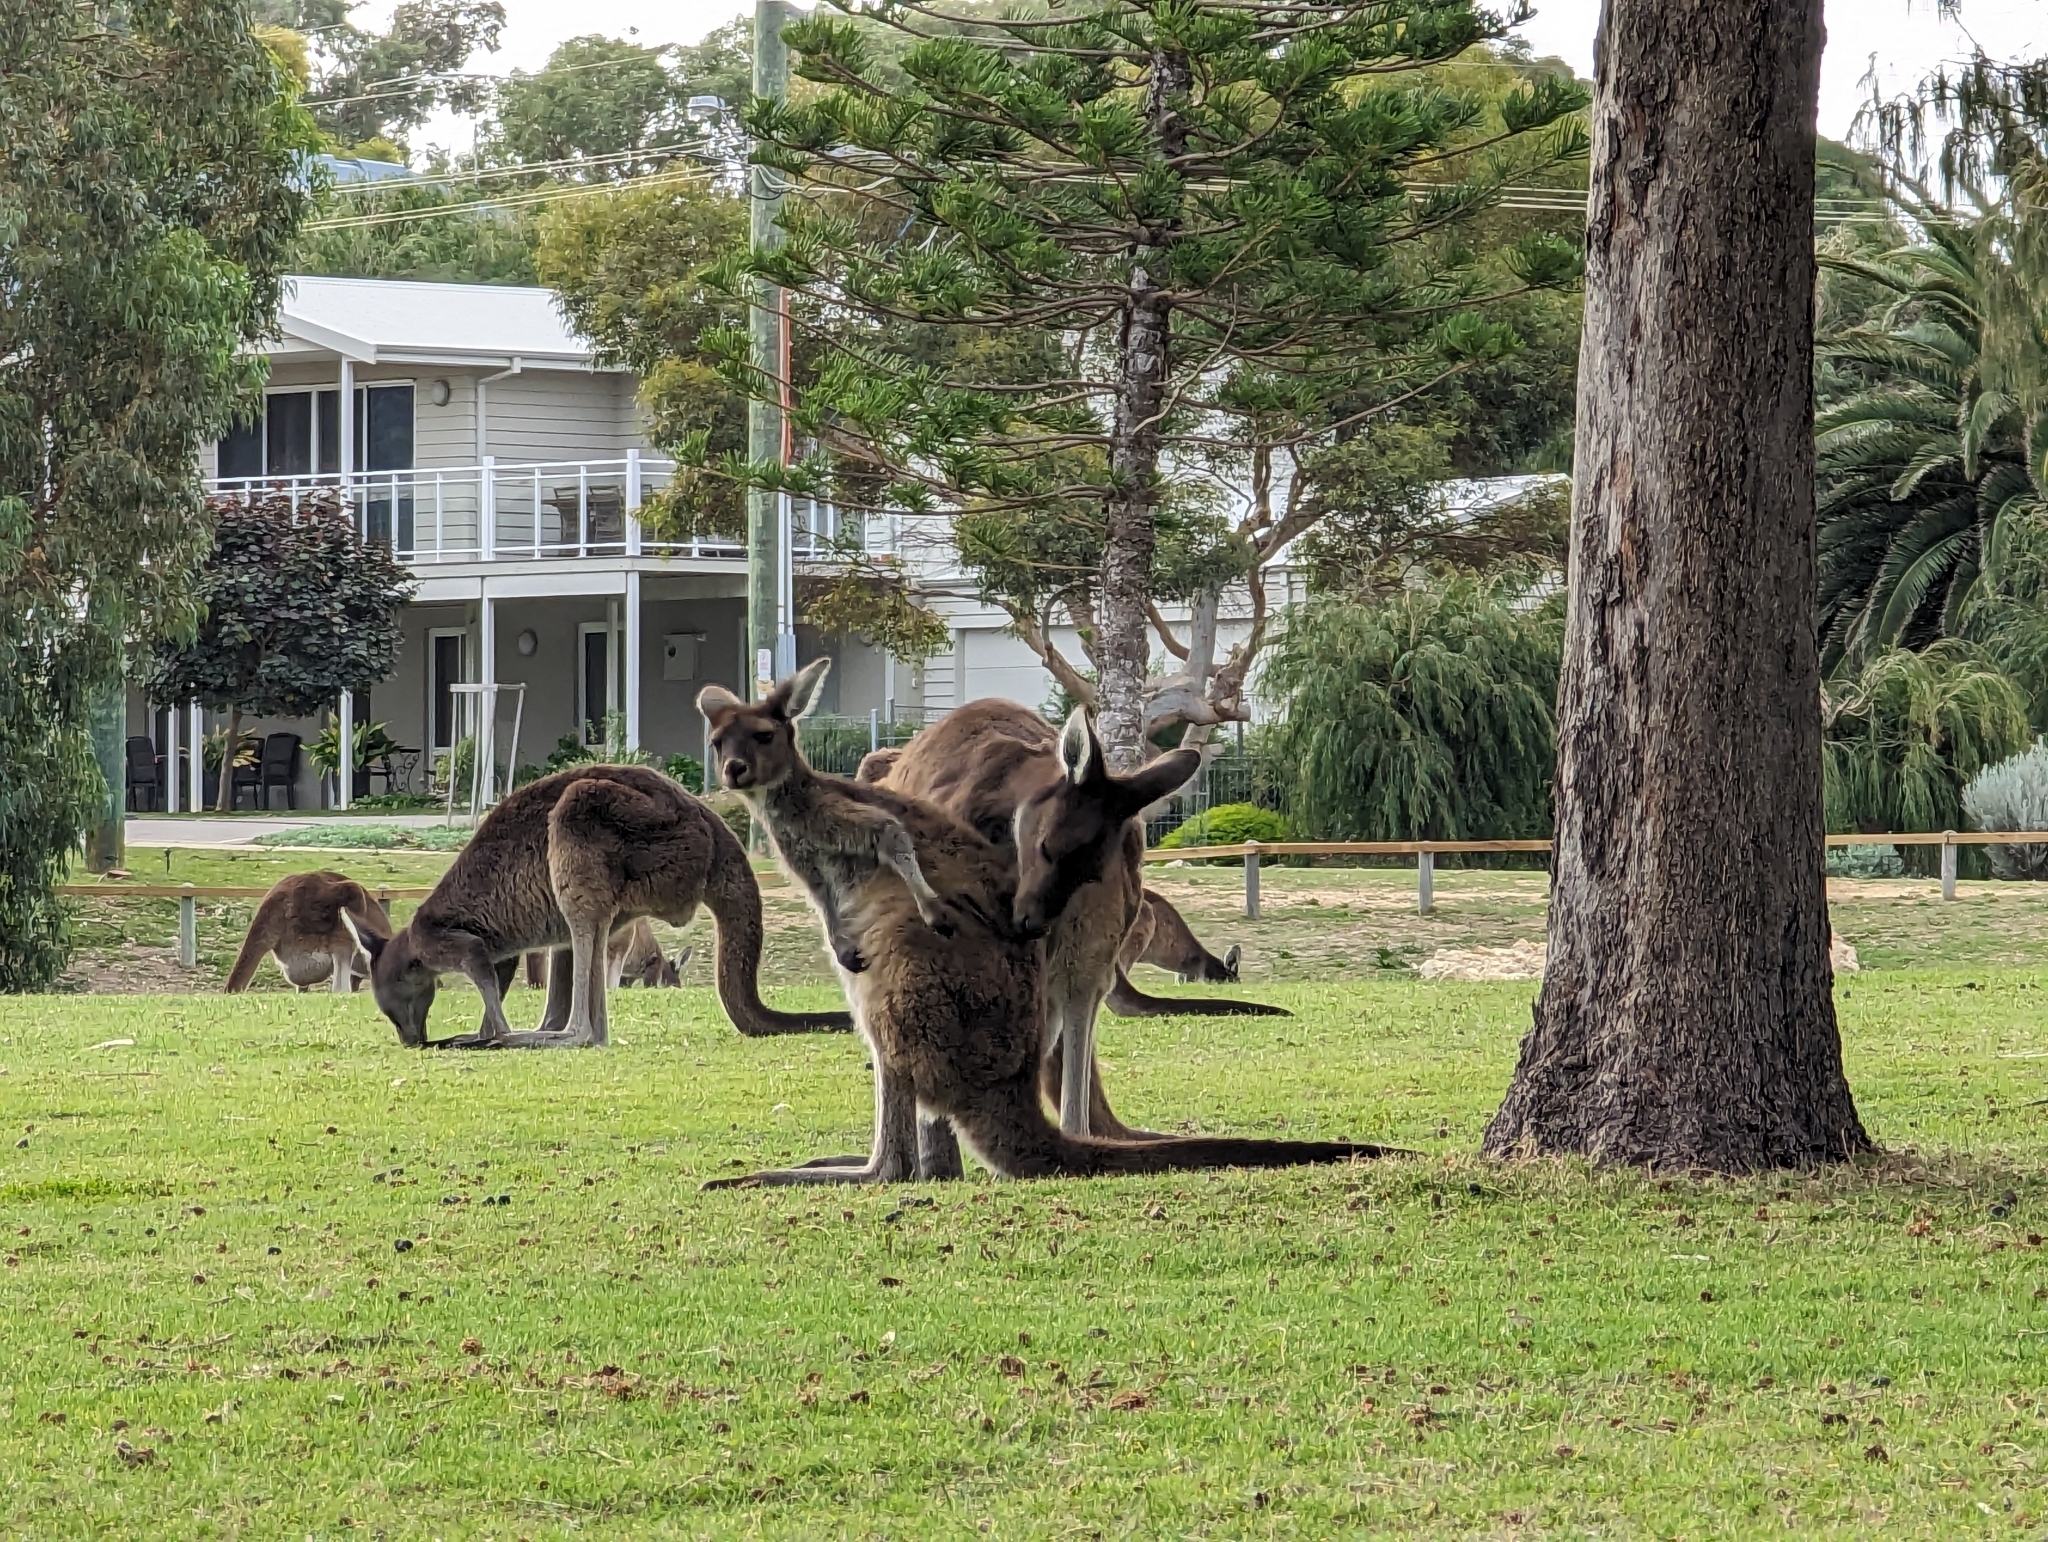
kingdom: Animalia
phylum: Chordata
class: Mammalia
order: Diprotodontia
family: Macropodidae
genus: Macropus
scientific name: Macropus fuliginosus
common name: Western grey kangaroo
